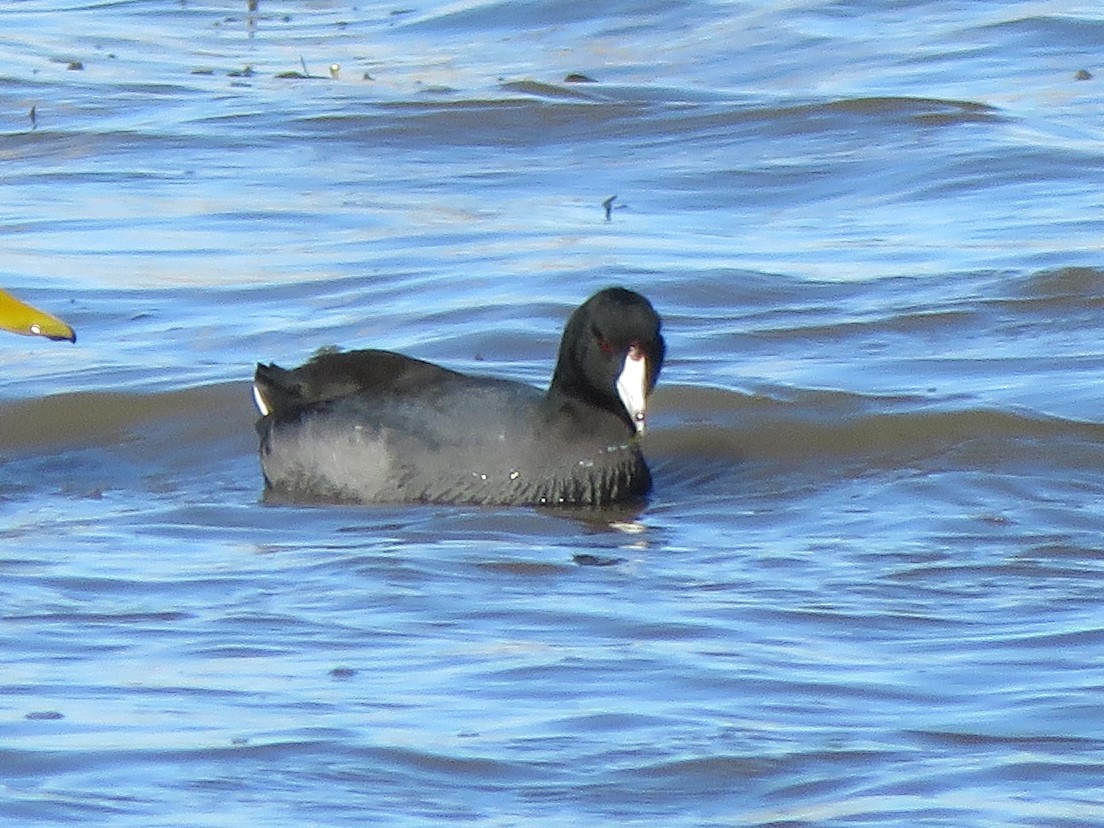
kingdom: Animalia
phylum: Chordata
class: Aves
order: Gruiformes
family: Rallidae
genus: Fulica
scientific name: Fulica americana
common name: American coot
